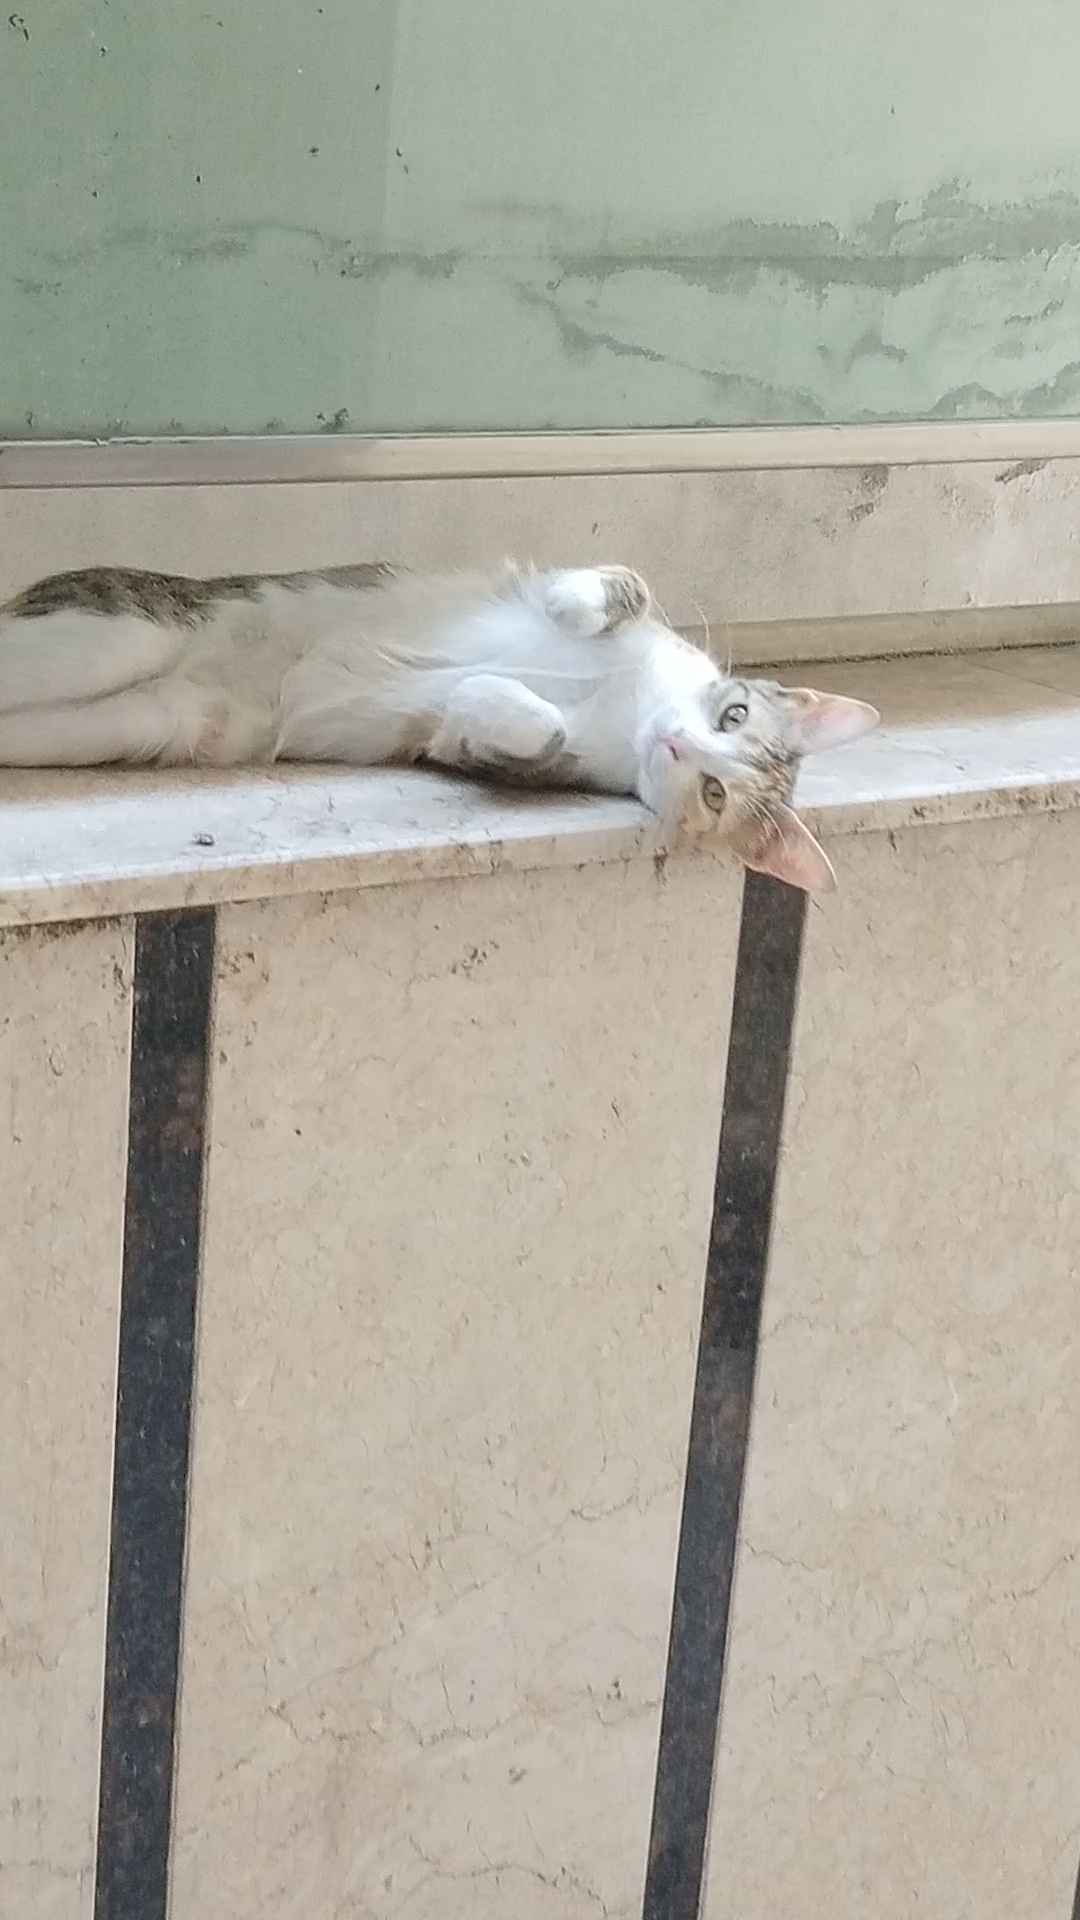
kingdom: Animalia
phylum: Chordata
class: Mammalia
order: Carnivora
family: Felidae
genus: Felis
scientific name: Felis catus
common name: Domestic cat
